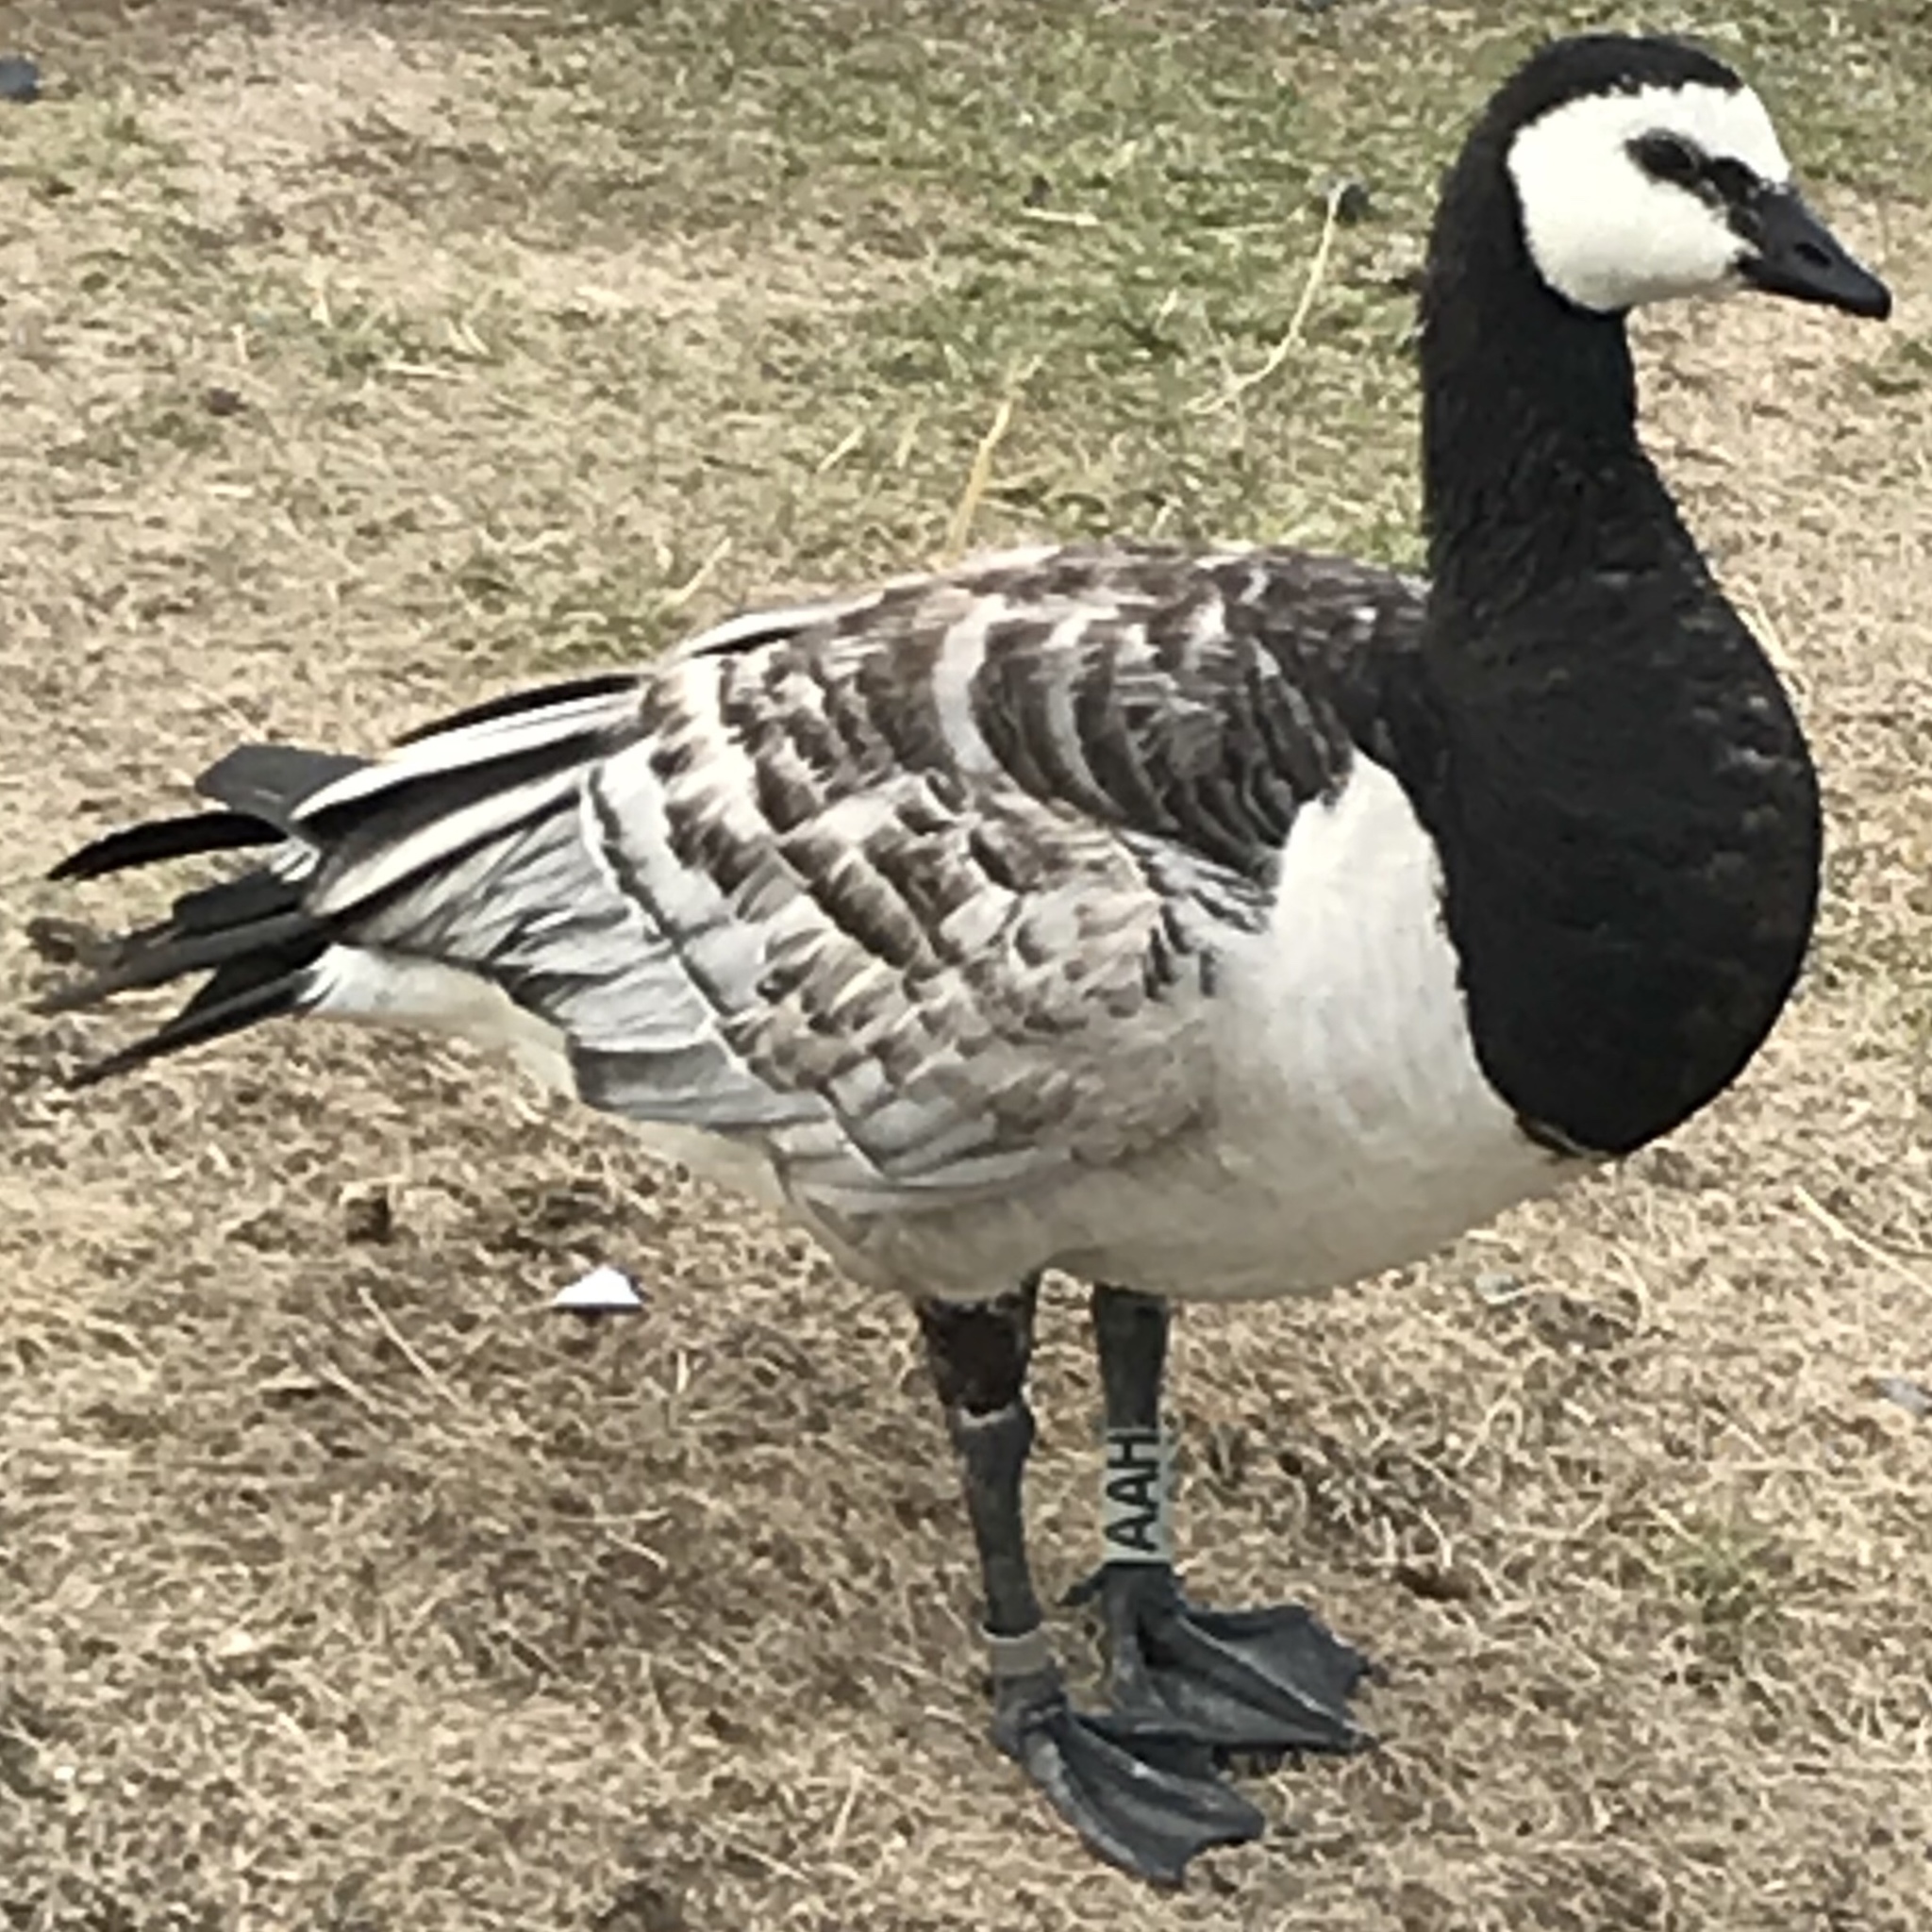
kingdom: Animalia
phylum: Chordata
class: Aves
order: Anseriformes
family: Anatidae
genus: Branta
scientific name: Branta leucopsis
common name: Barnacle goose
